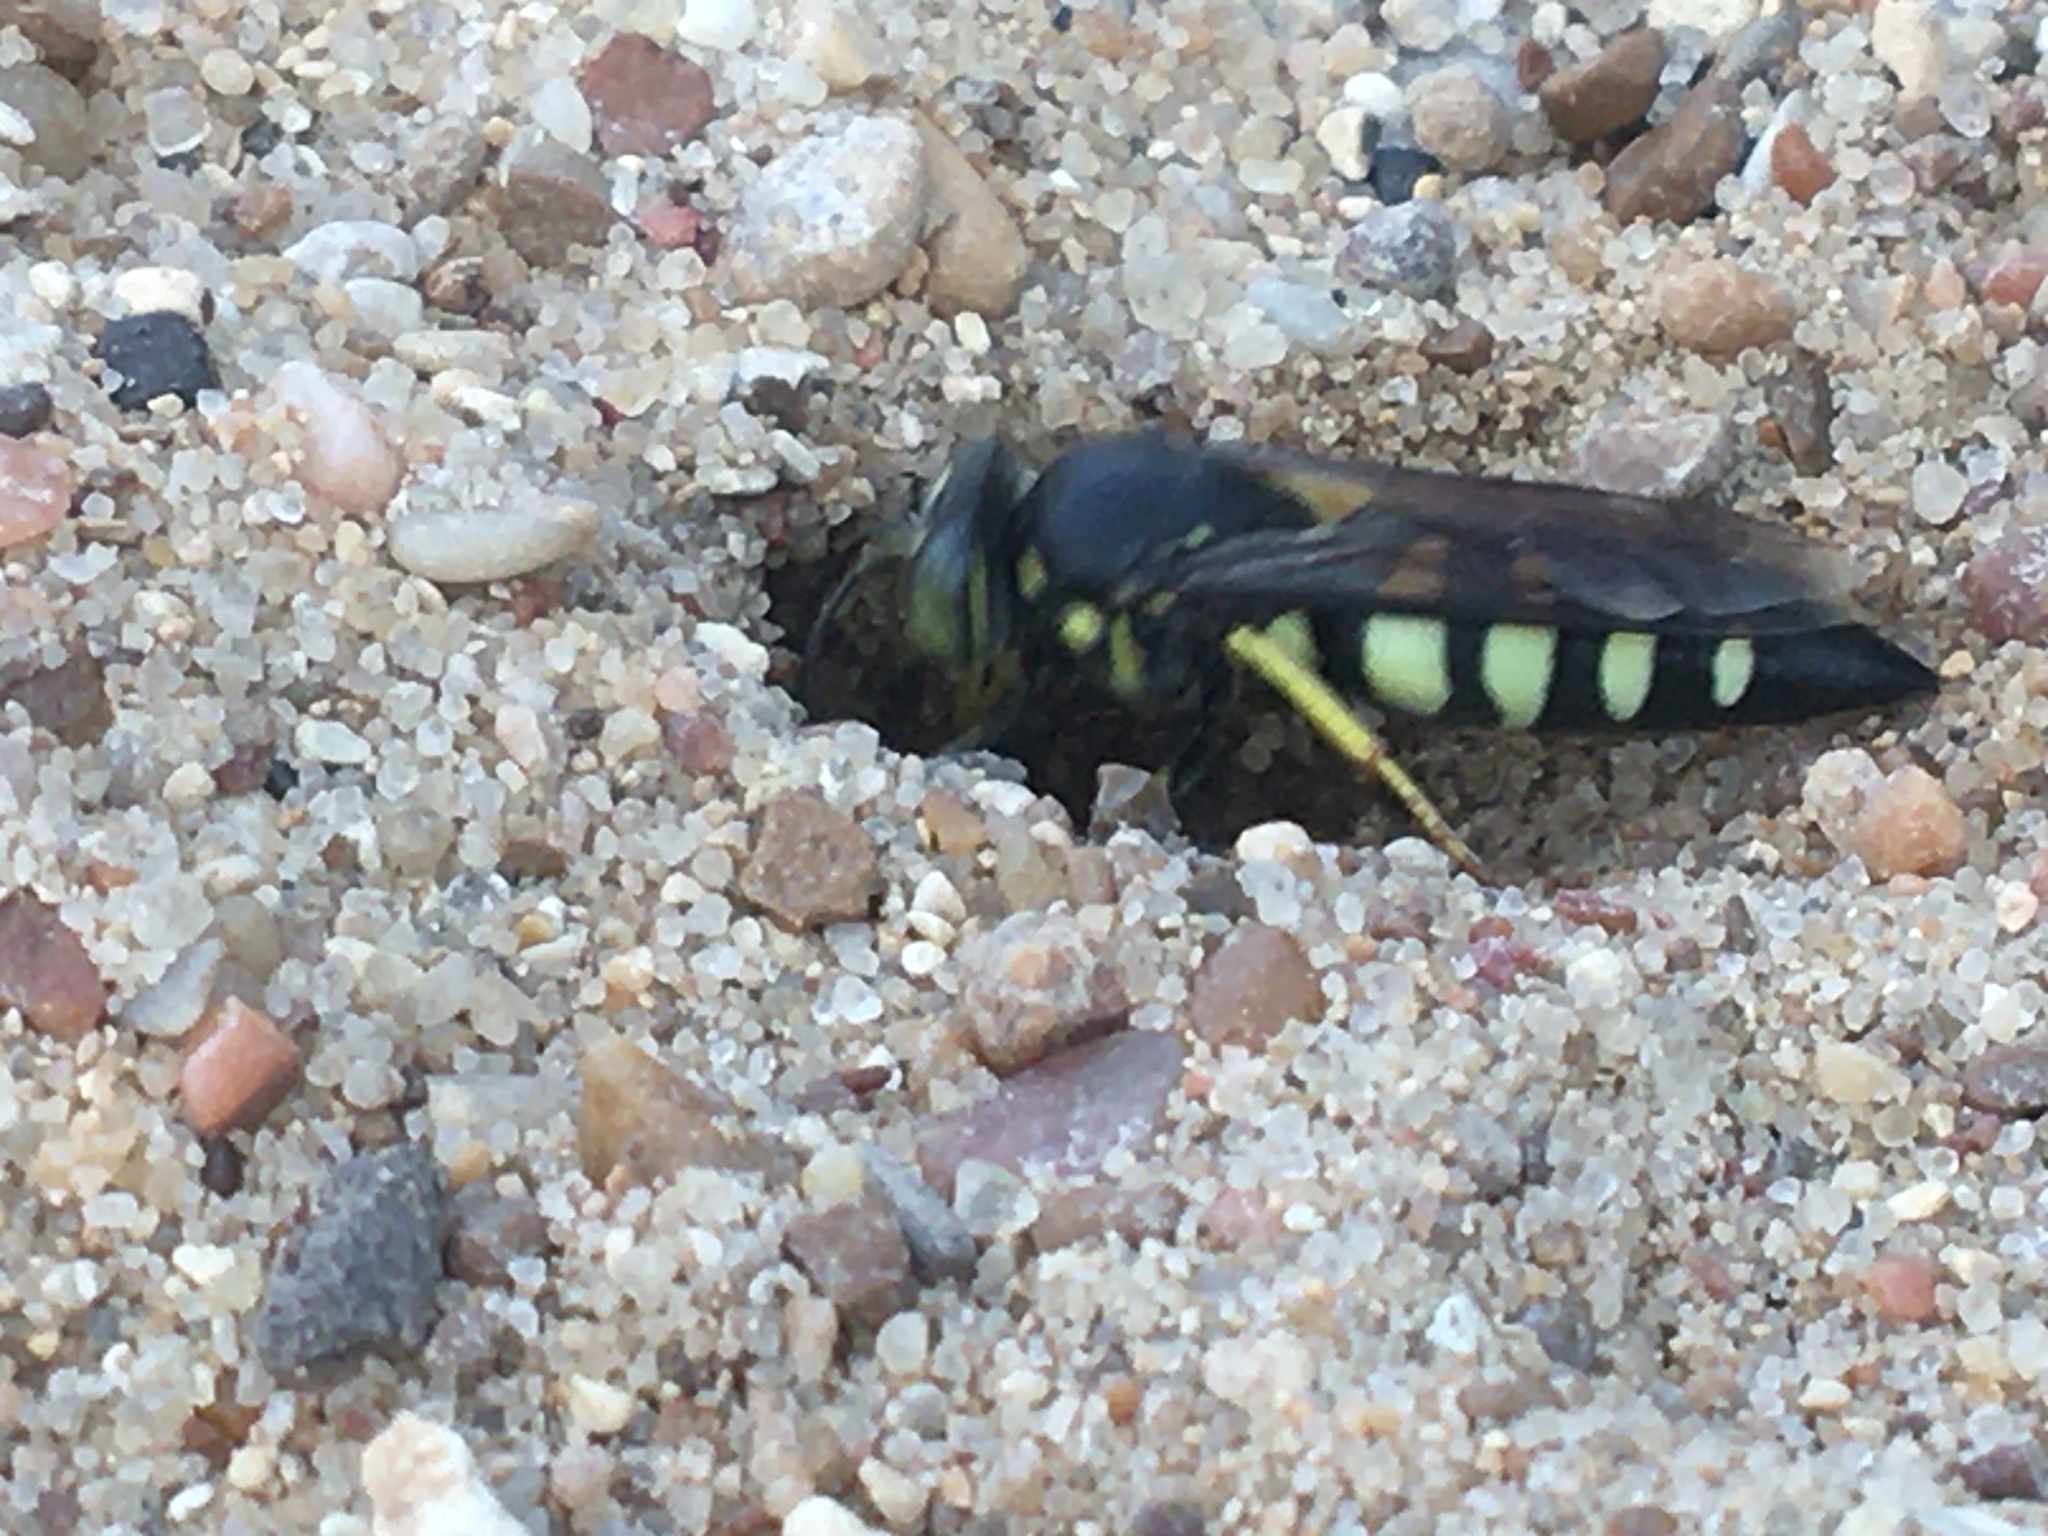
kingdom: Animalia
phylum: Arthropoda
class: Insecta
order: Hymenoptera
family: Crabronidae
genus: Bicyrtes
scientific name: Bicyrtes quadrifasciatus
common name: Four-banded stink bug hunter wasp
